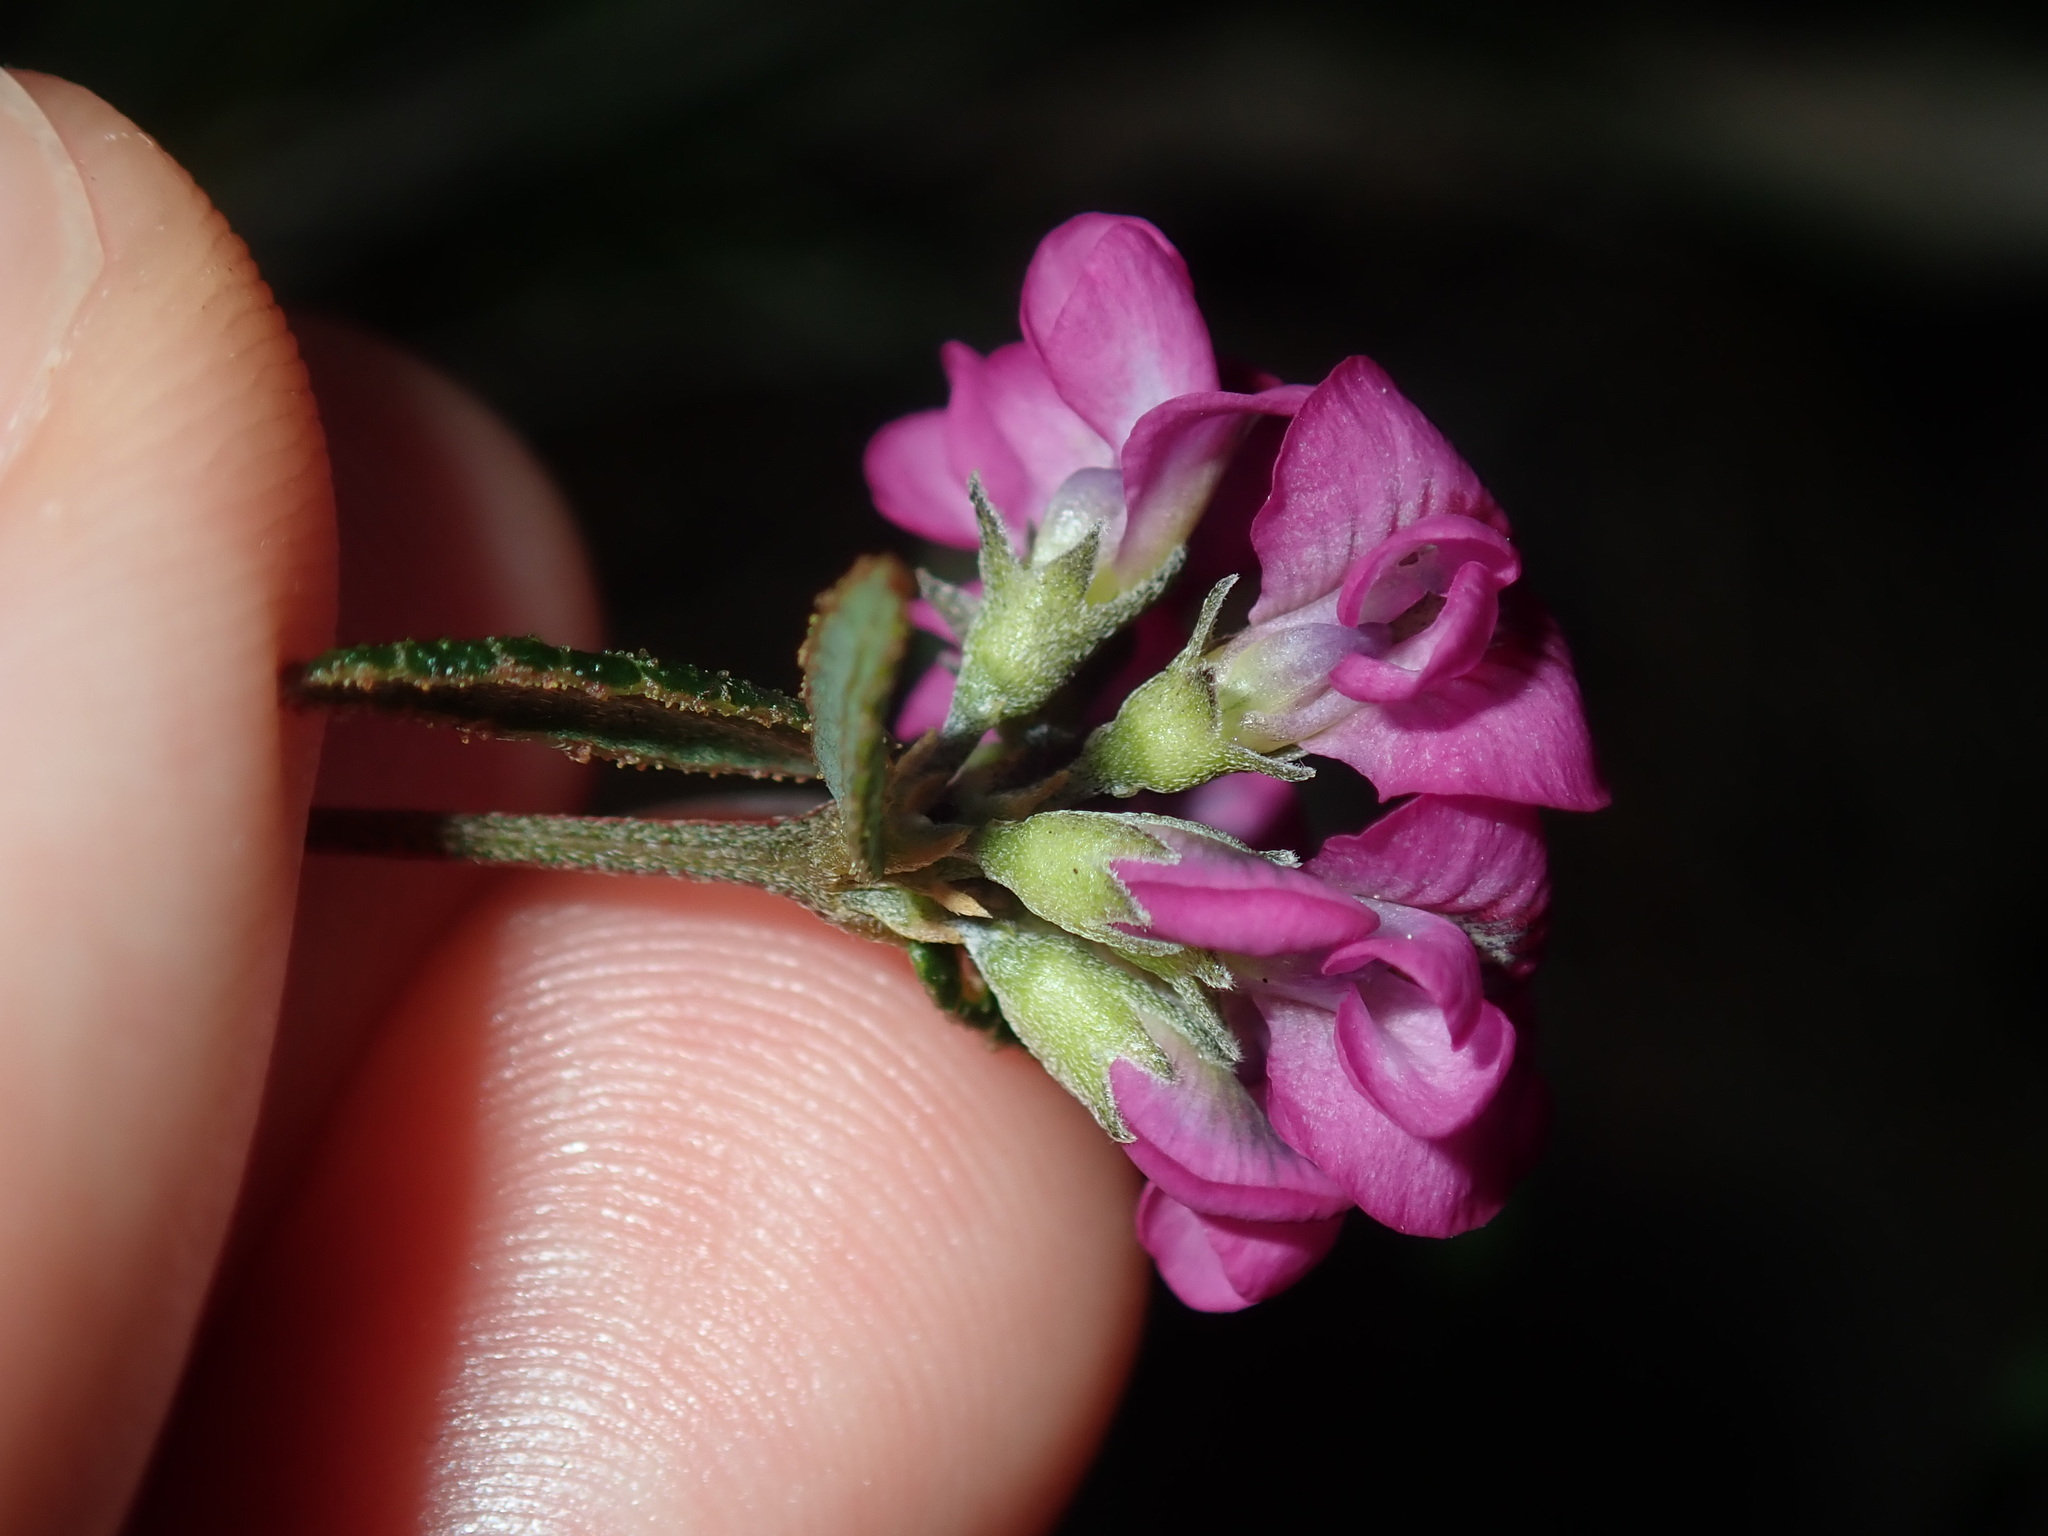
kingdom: Plantae
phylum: Tracheophyta
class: Magnoliopsida
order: Fabales
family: Fabaceae
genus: Mirbelia
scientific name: Mirbelia rubiifolia
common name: Heathy mirbelia
